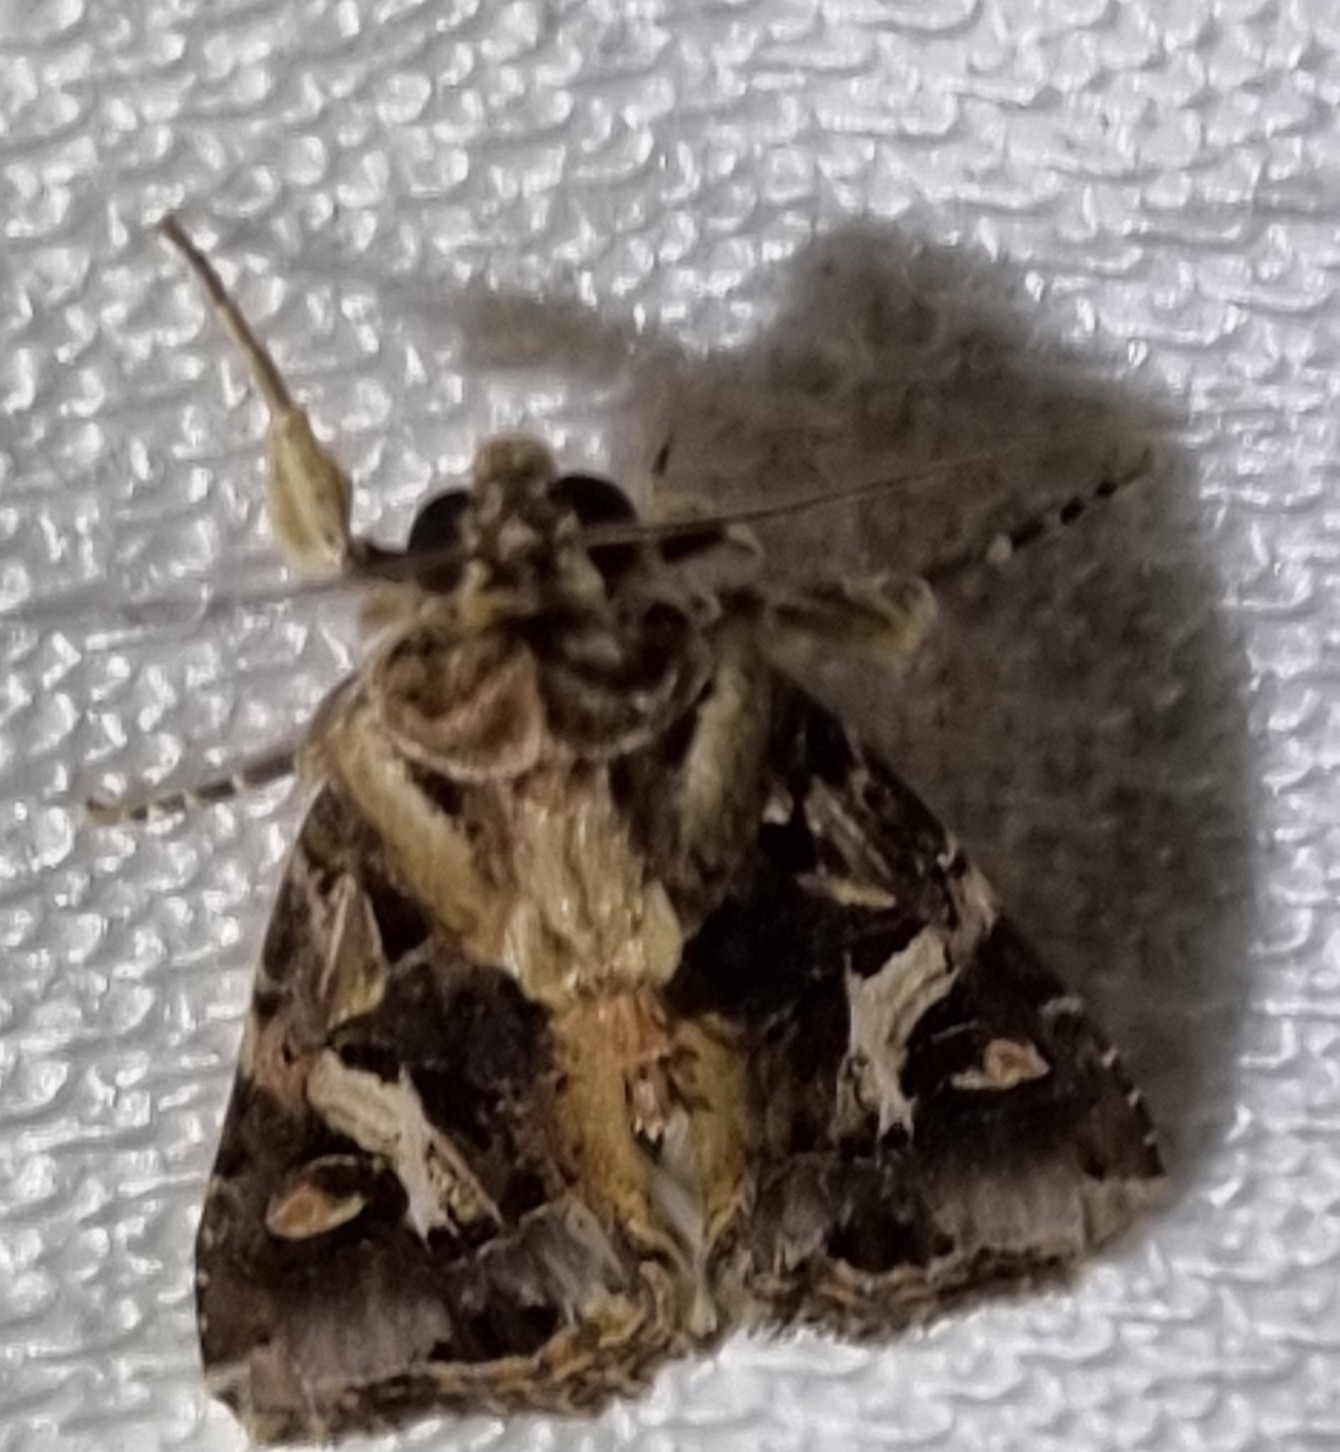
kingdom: Animalia
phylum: Arthropoda
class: Insecta
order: Lepidoptera
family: Noctuidae
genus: Spodoptera
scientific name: Spodoptera litura
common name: Asian cotton leafworm
